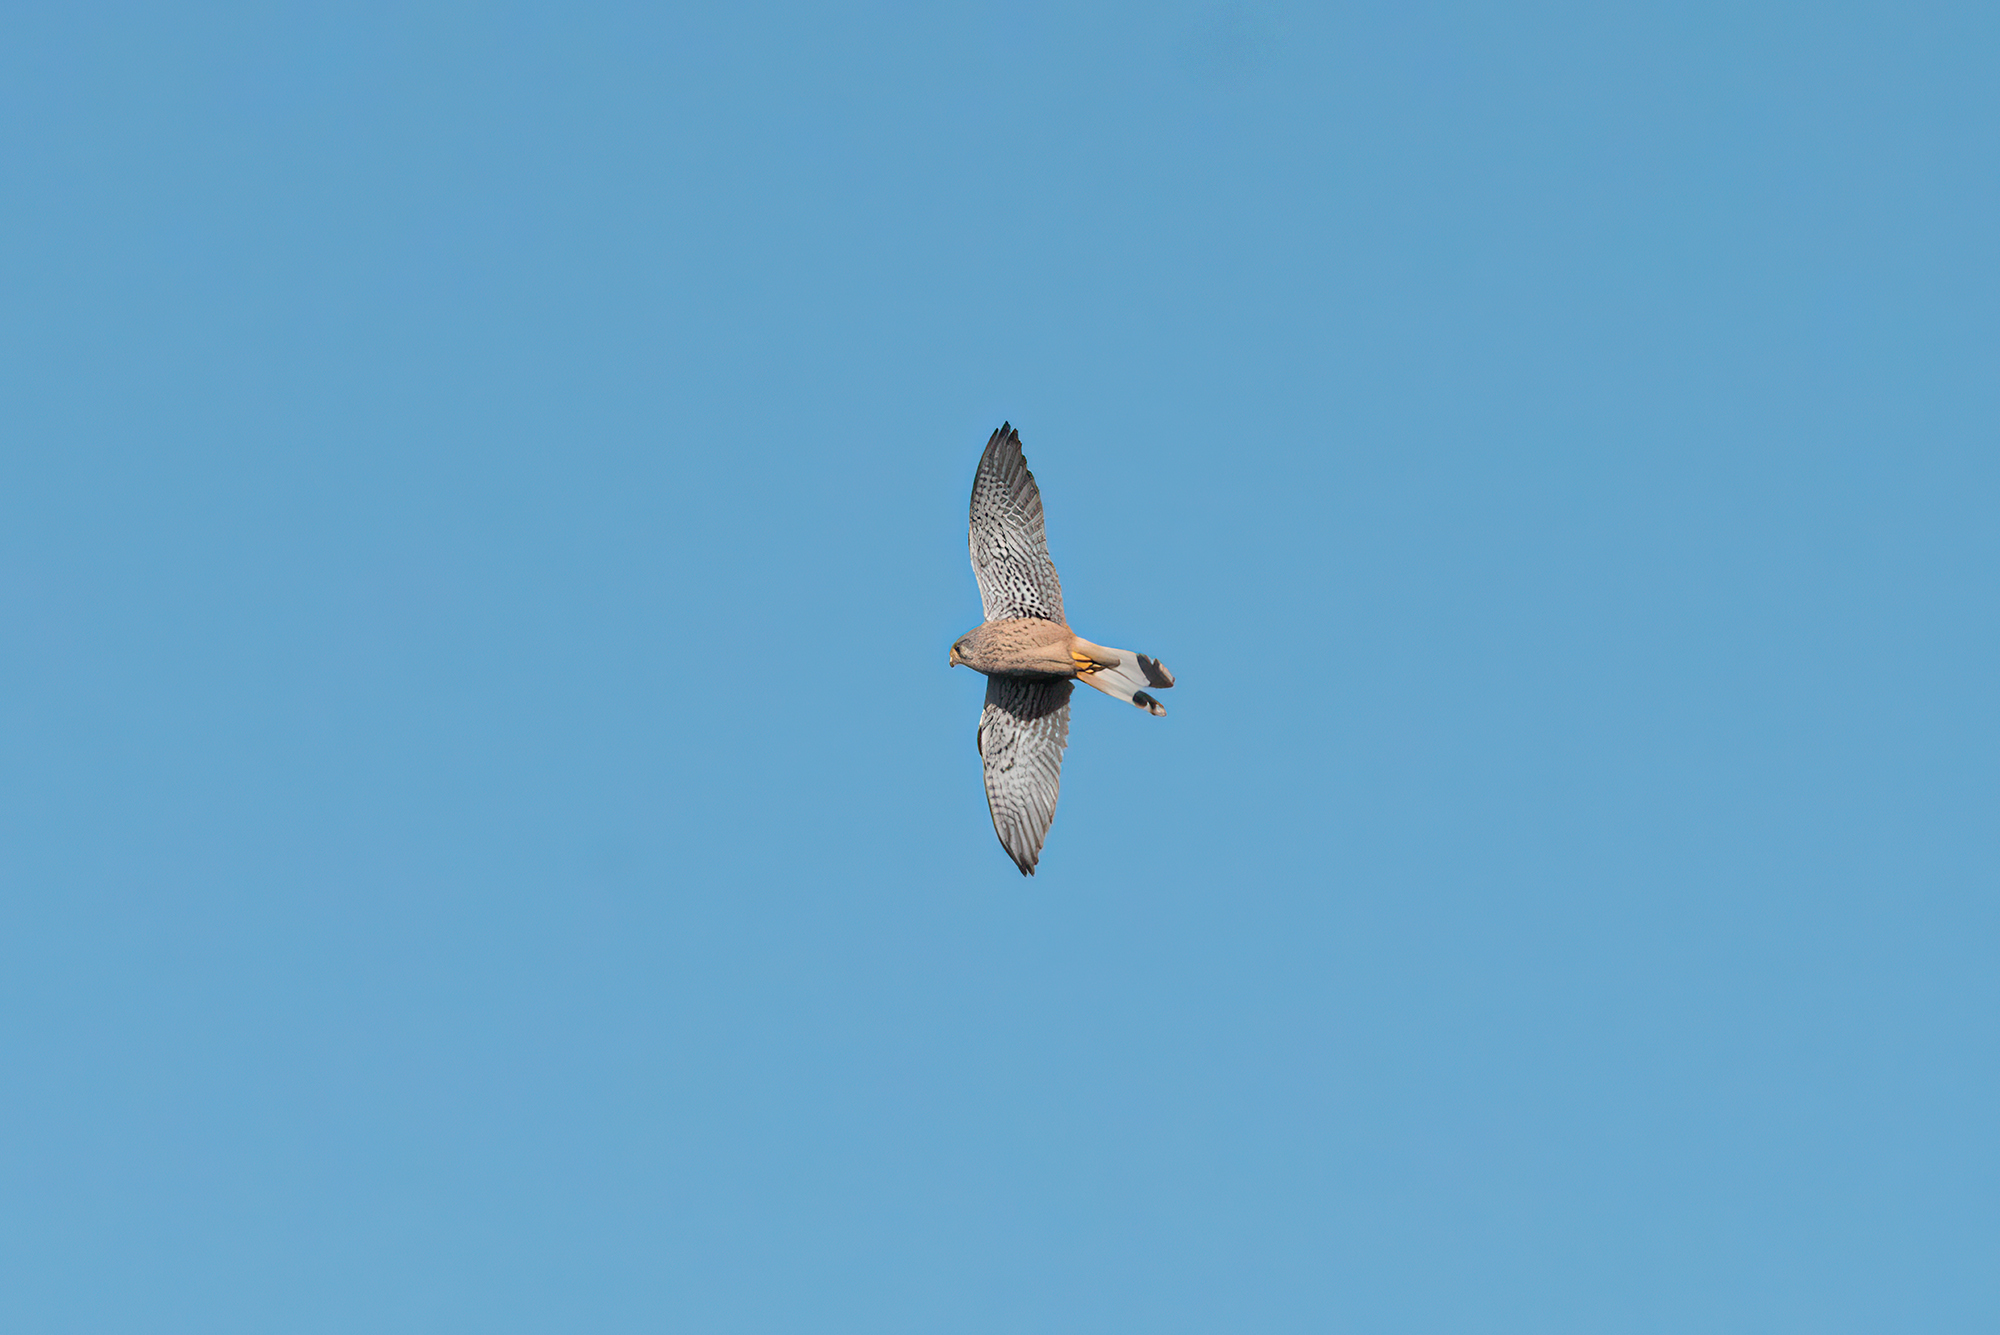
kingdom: Animalia
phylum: Chordata
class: Aves
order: Falconiformes
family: Falconidae
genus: Falco
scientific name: Falco tinnunculus
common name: Common kestrel
